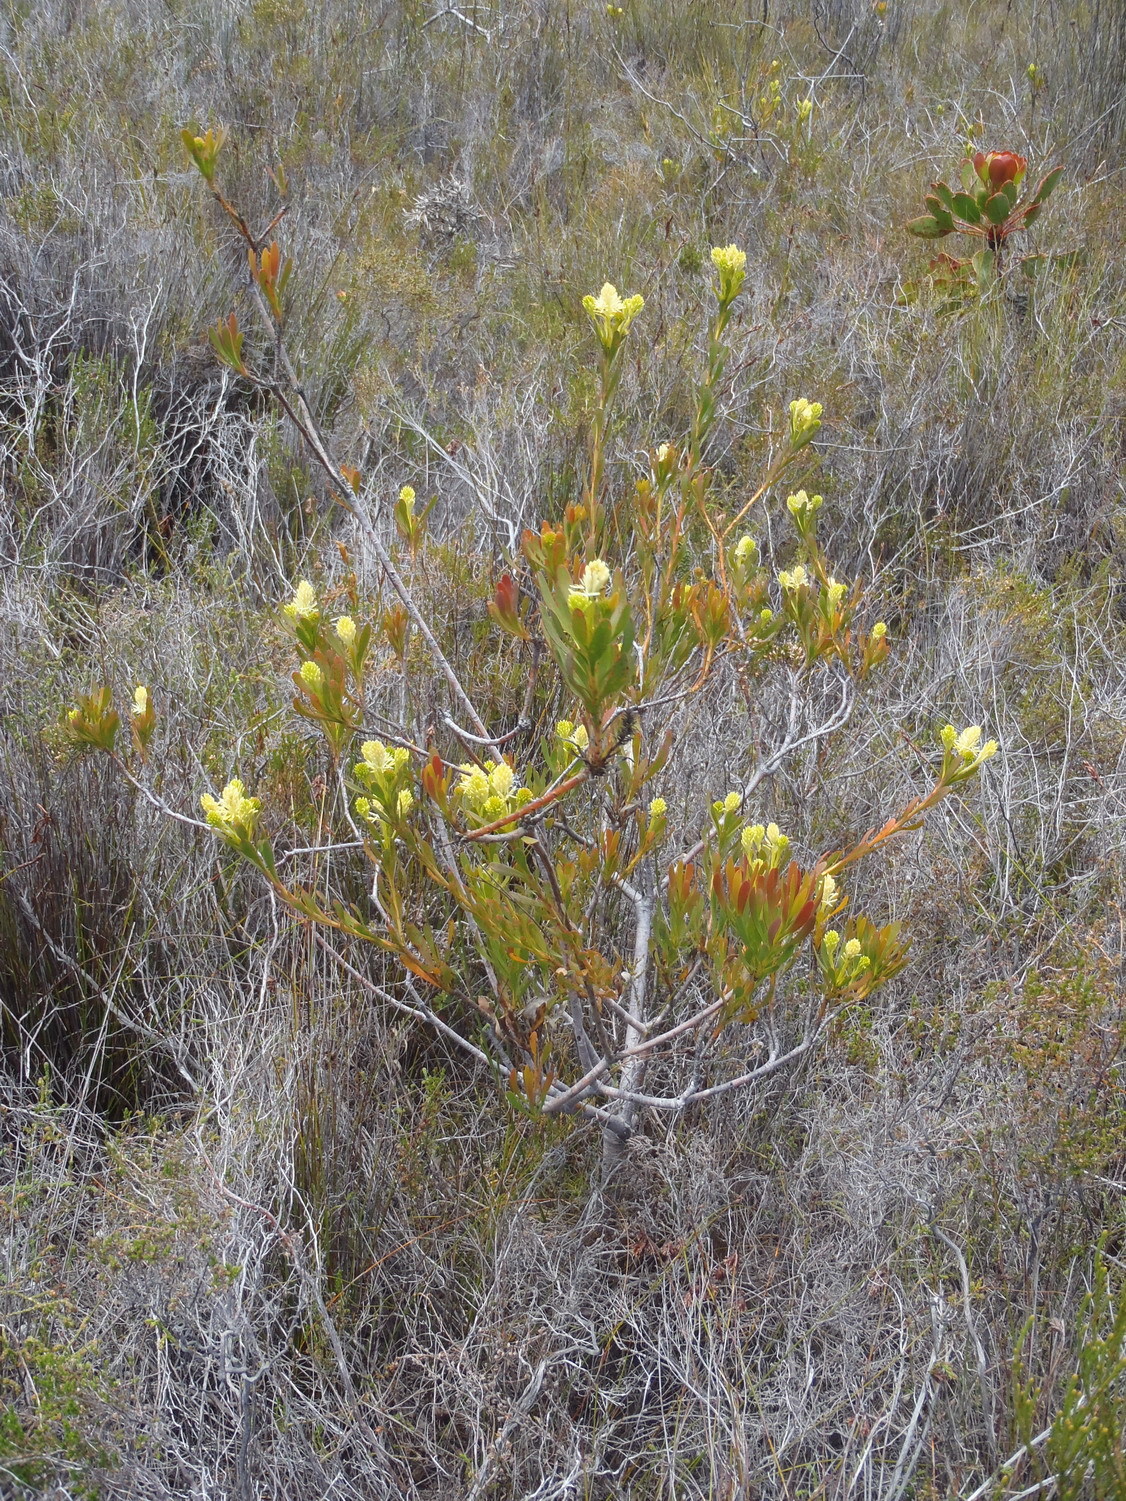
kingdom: Plantae
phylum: Tracheophyta
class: Magnoliopsida
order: Proteales
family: Proteaceae
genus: Aulax
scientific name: Aulax umbellata
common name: Broad-leaf featherbush
